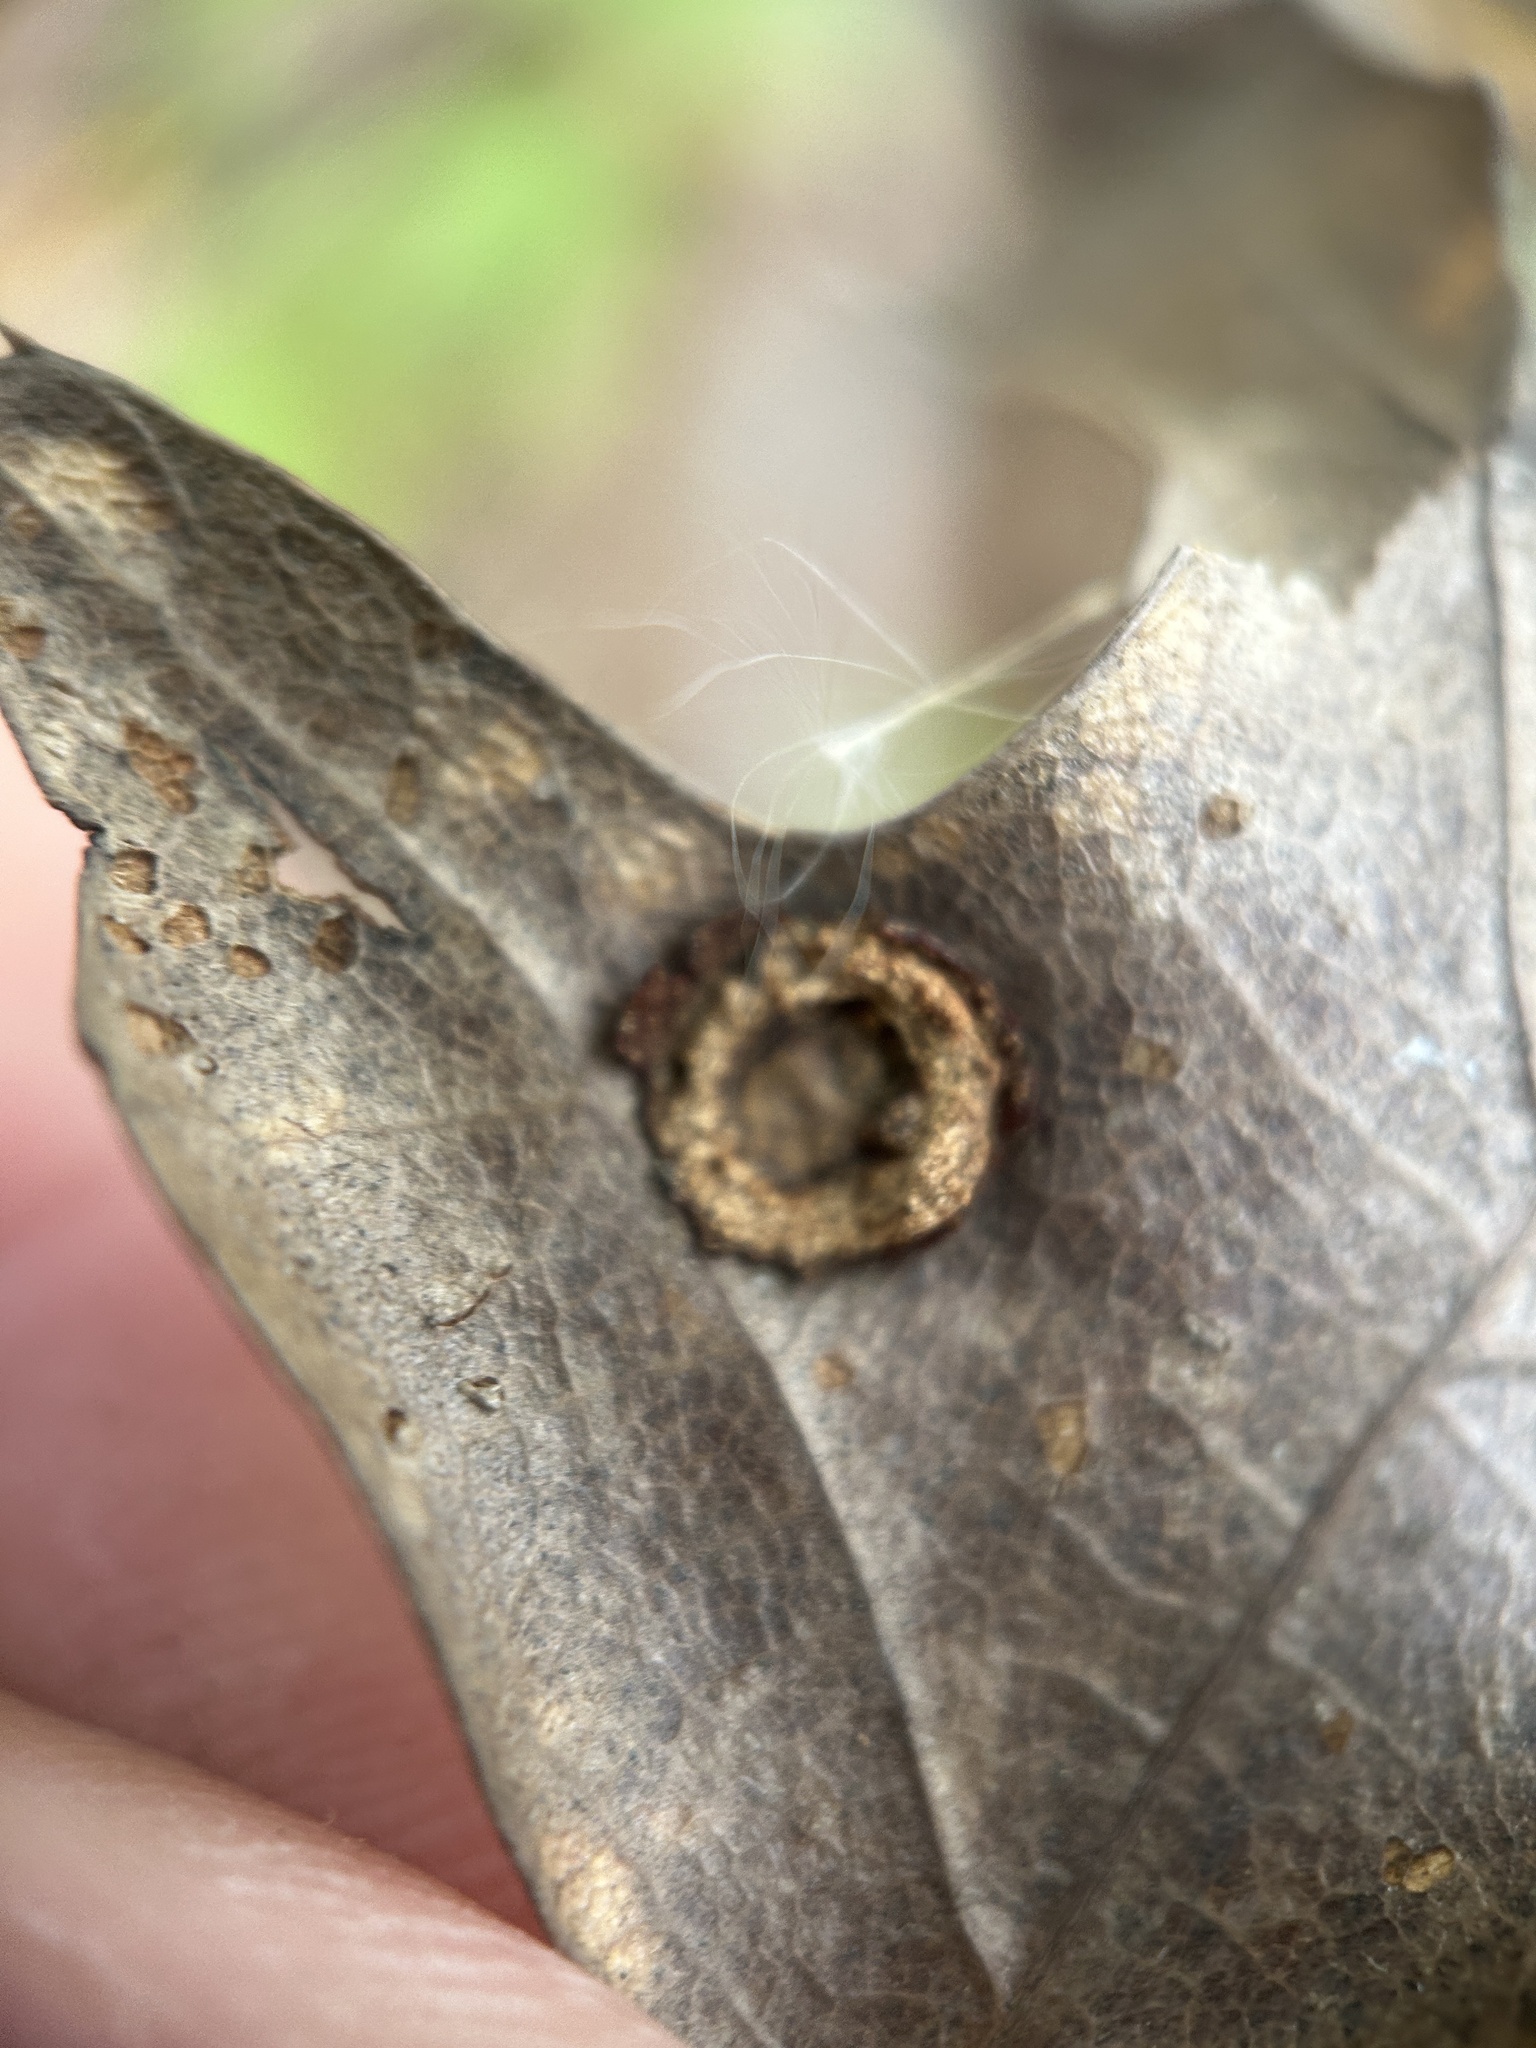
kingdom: Animalia
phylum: Arthropoda
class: Insecta
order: Diptera
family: Cecidomyiidae
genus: Polystepha
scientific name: Polystepha pilulae
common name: Oak leaf gall midge
